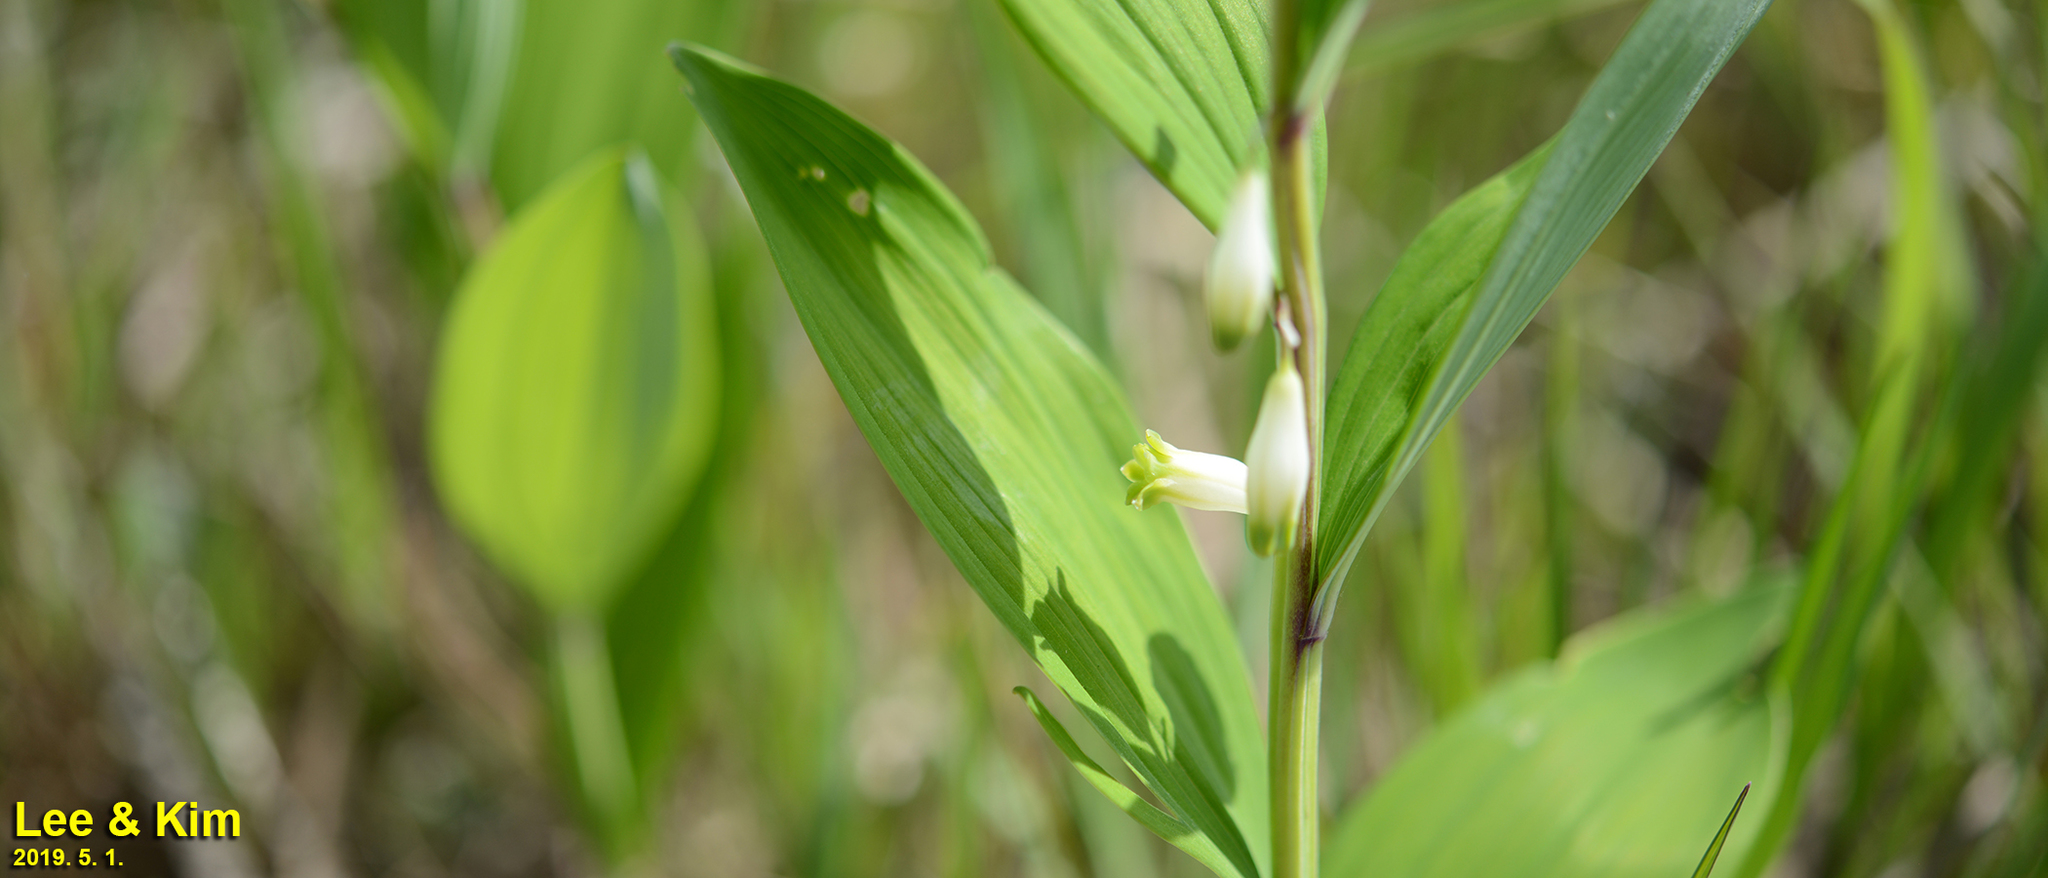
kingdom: Plantae
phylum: Tracheophyta
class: Liliopsida
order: Asparagales
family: Asparagaceae
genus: Polygonatum
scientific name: Polygonatum odoratum
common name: Angular solomon's-seal
